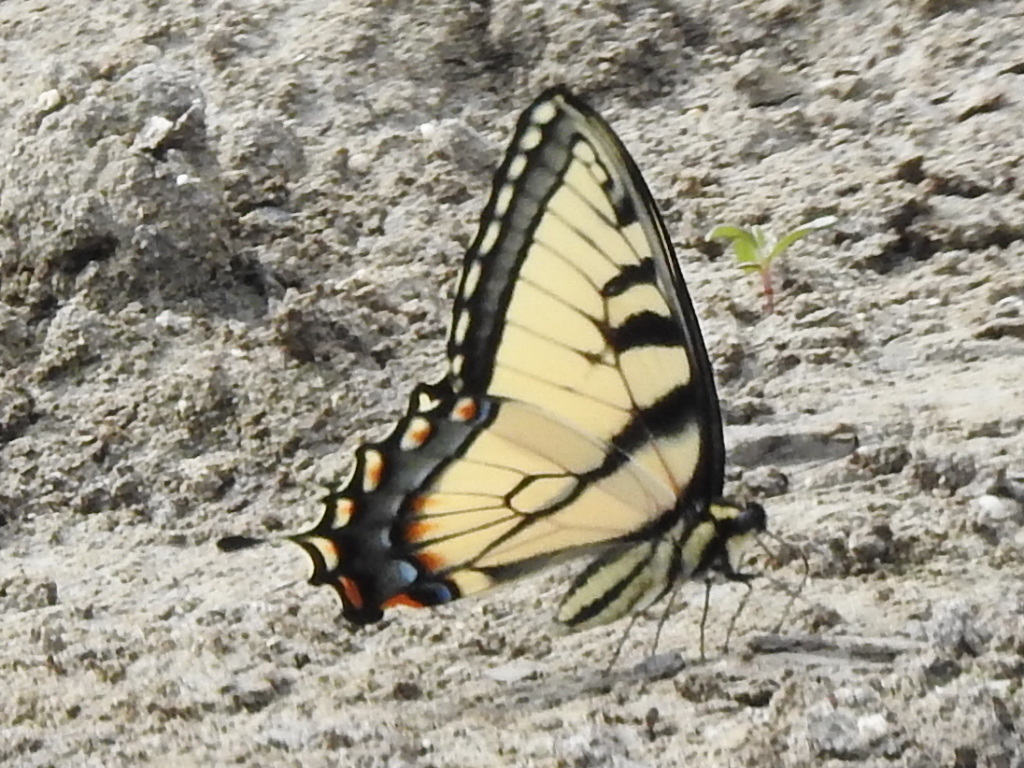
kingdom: Animalia
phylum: Arthropoda
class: Insecta
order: Lepidoptera
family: Papilionidae
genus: Papilio
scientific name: Papilio glaucus
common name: Tiger swallowtail
